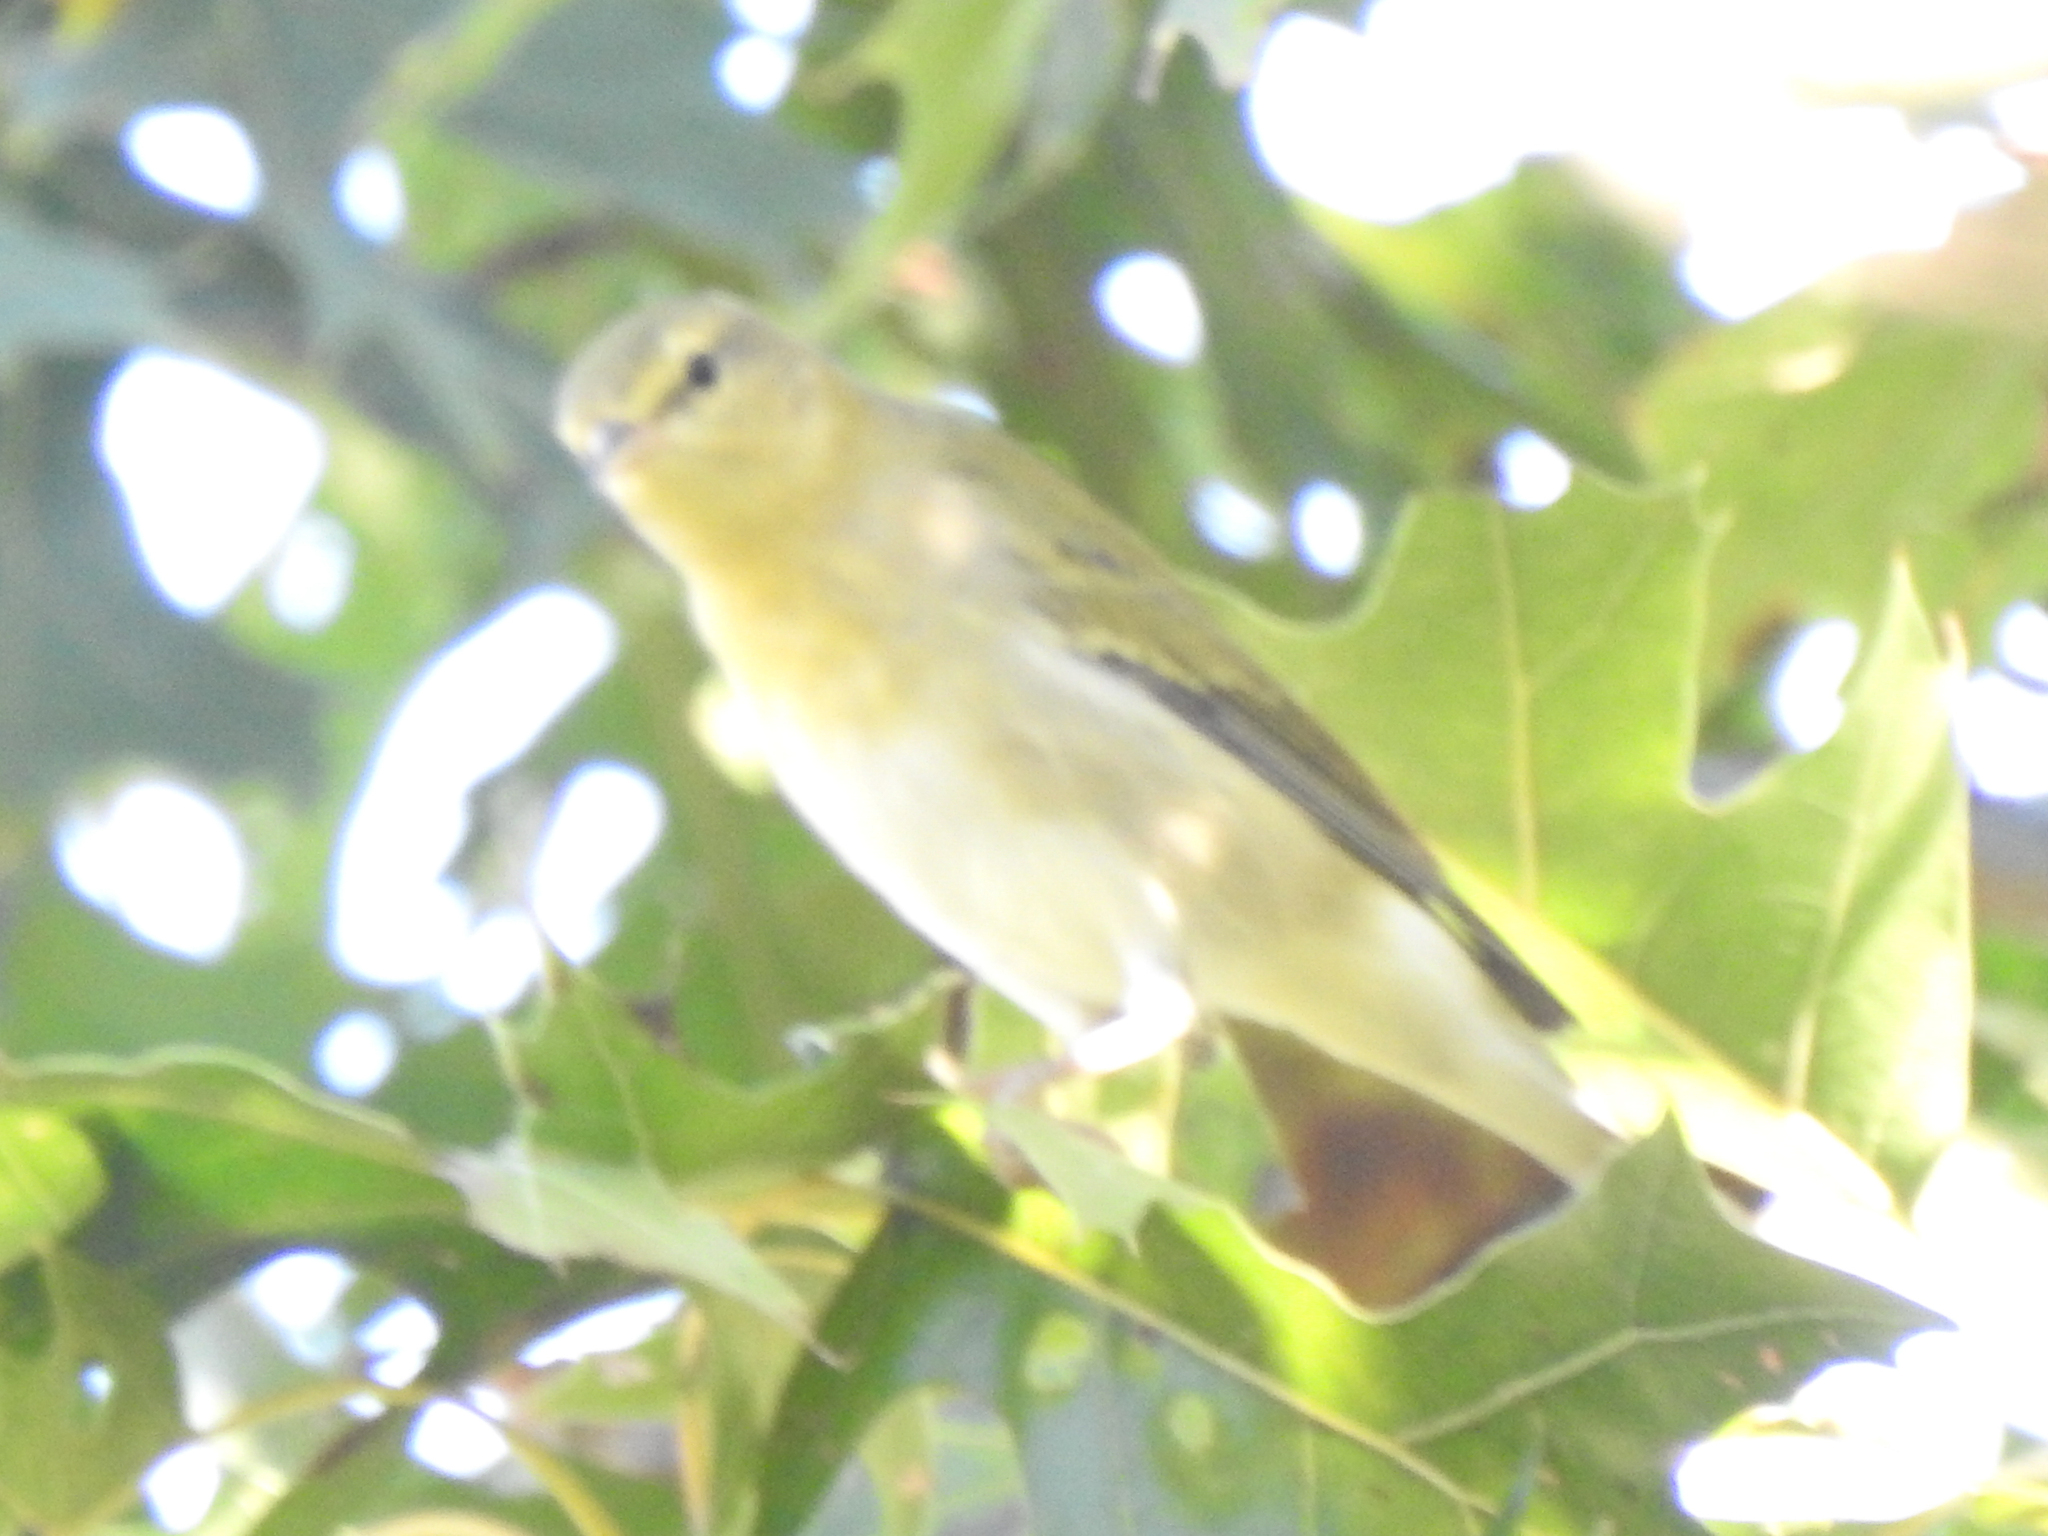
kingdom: Animalia
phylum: Chordata
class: Aves
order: Passeriformes
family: Parulidae
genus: Leiothlypis
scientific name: Leiothlypis peregrina
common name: Tennessee warbler
